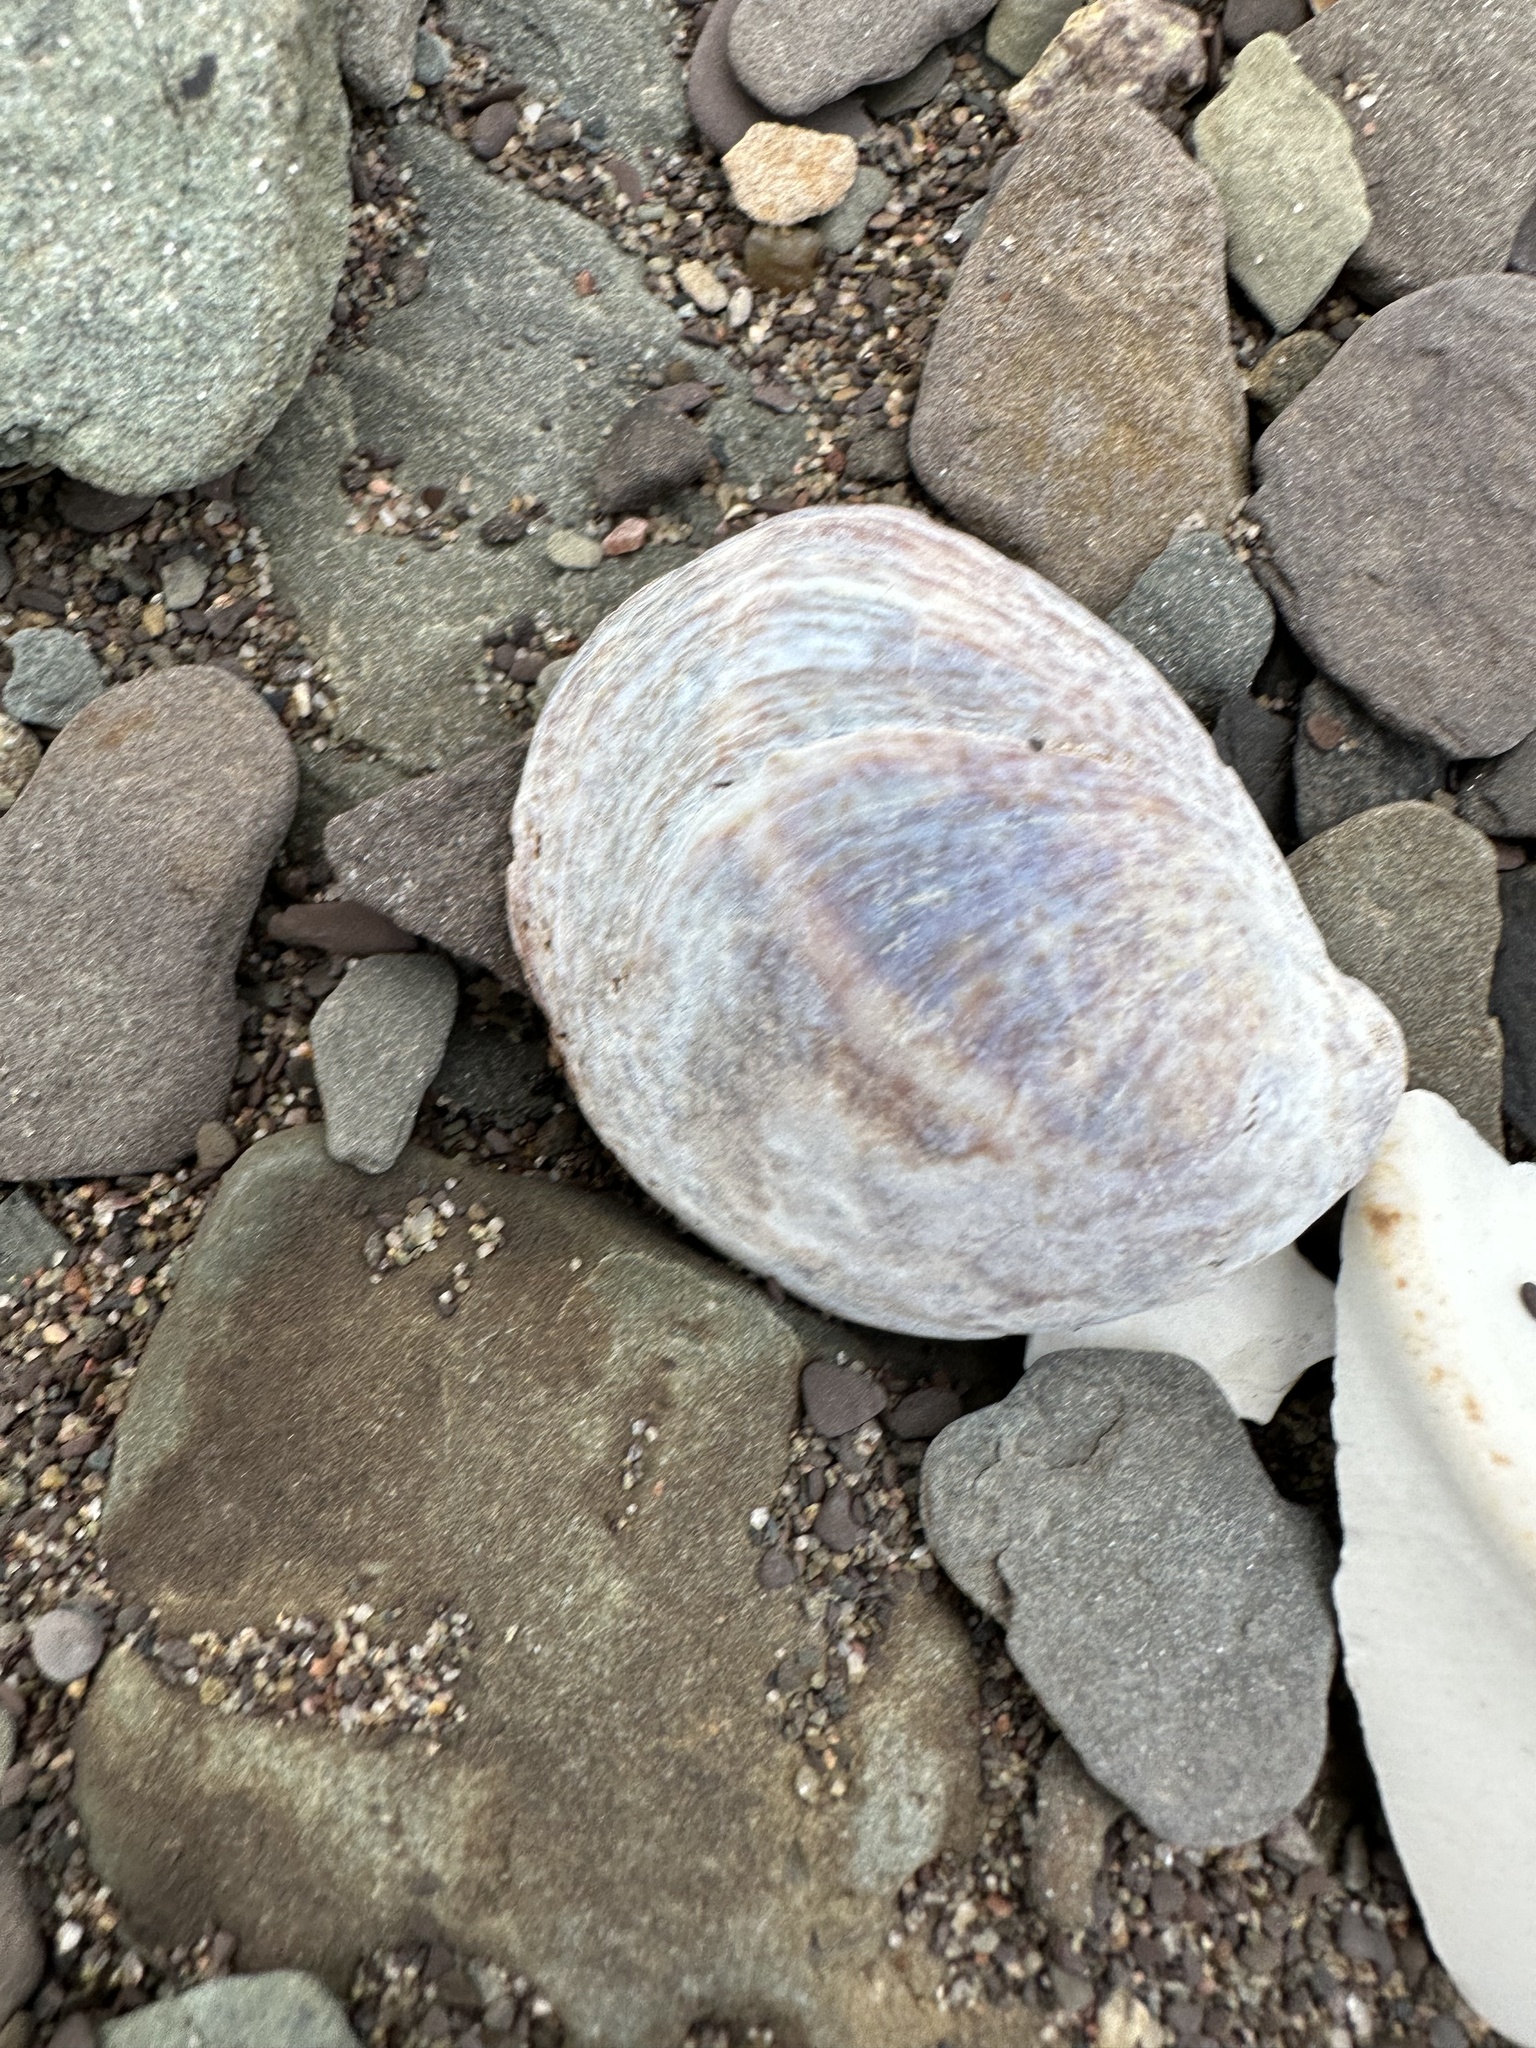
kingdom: Animalia
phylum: Mollusca
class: Gastropoda
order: Littorinimorpha
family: Calyptraeidae
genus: Crepidula
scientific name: Crepidula fornicata
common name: Slipper limpet
